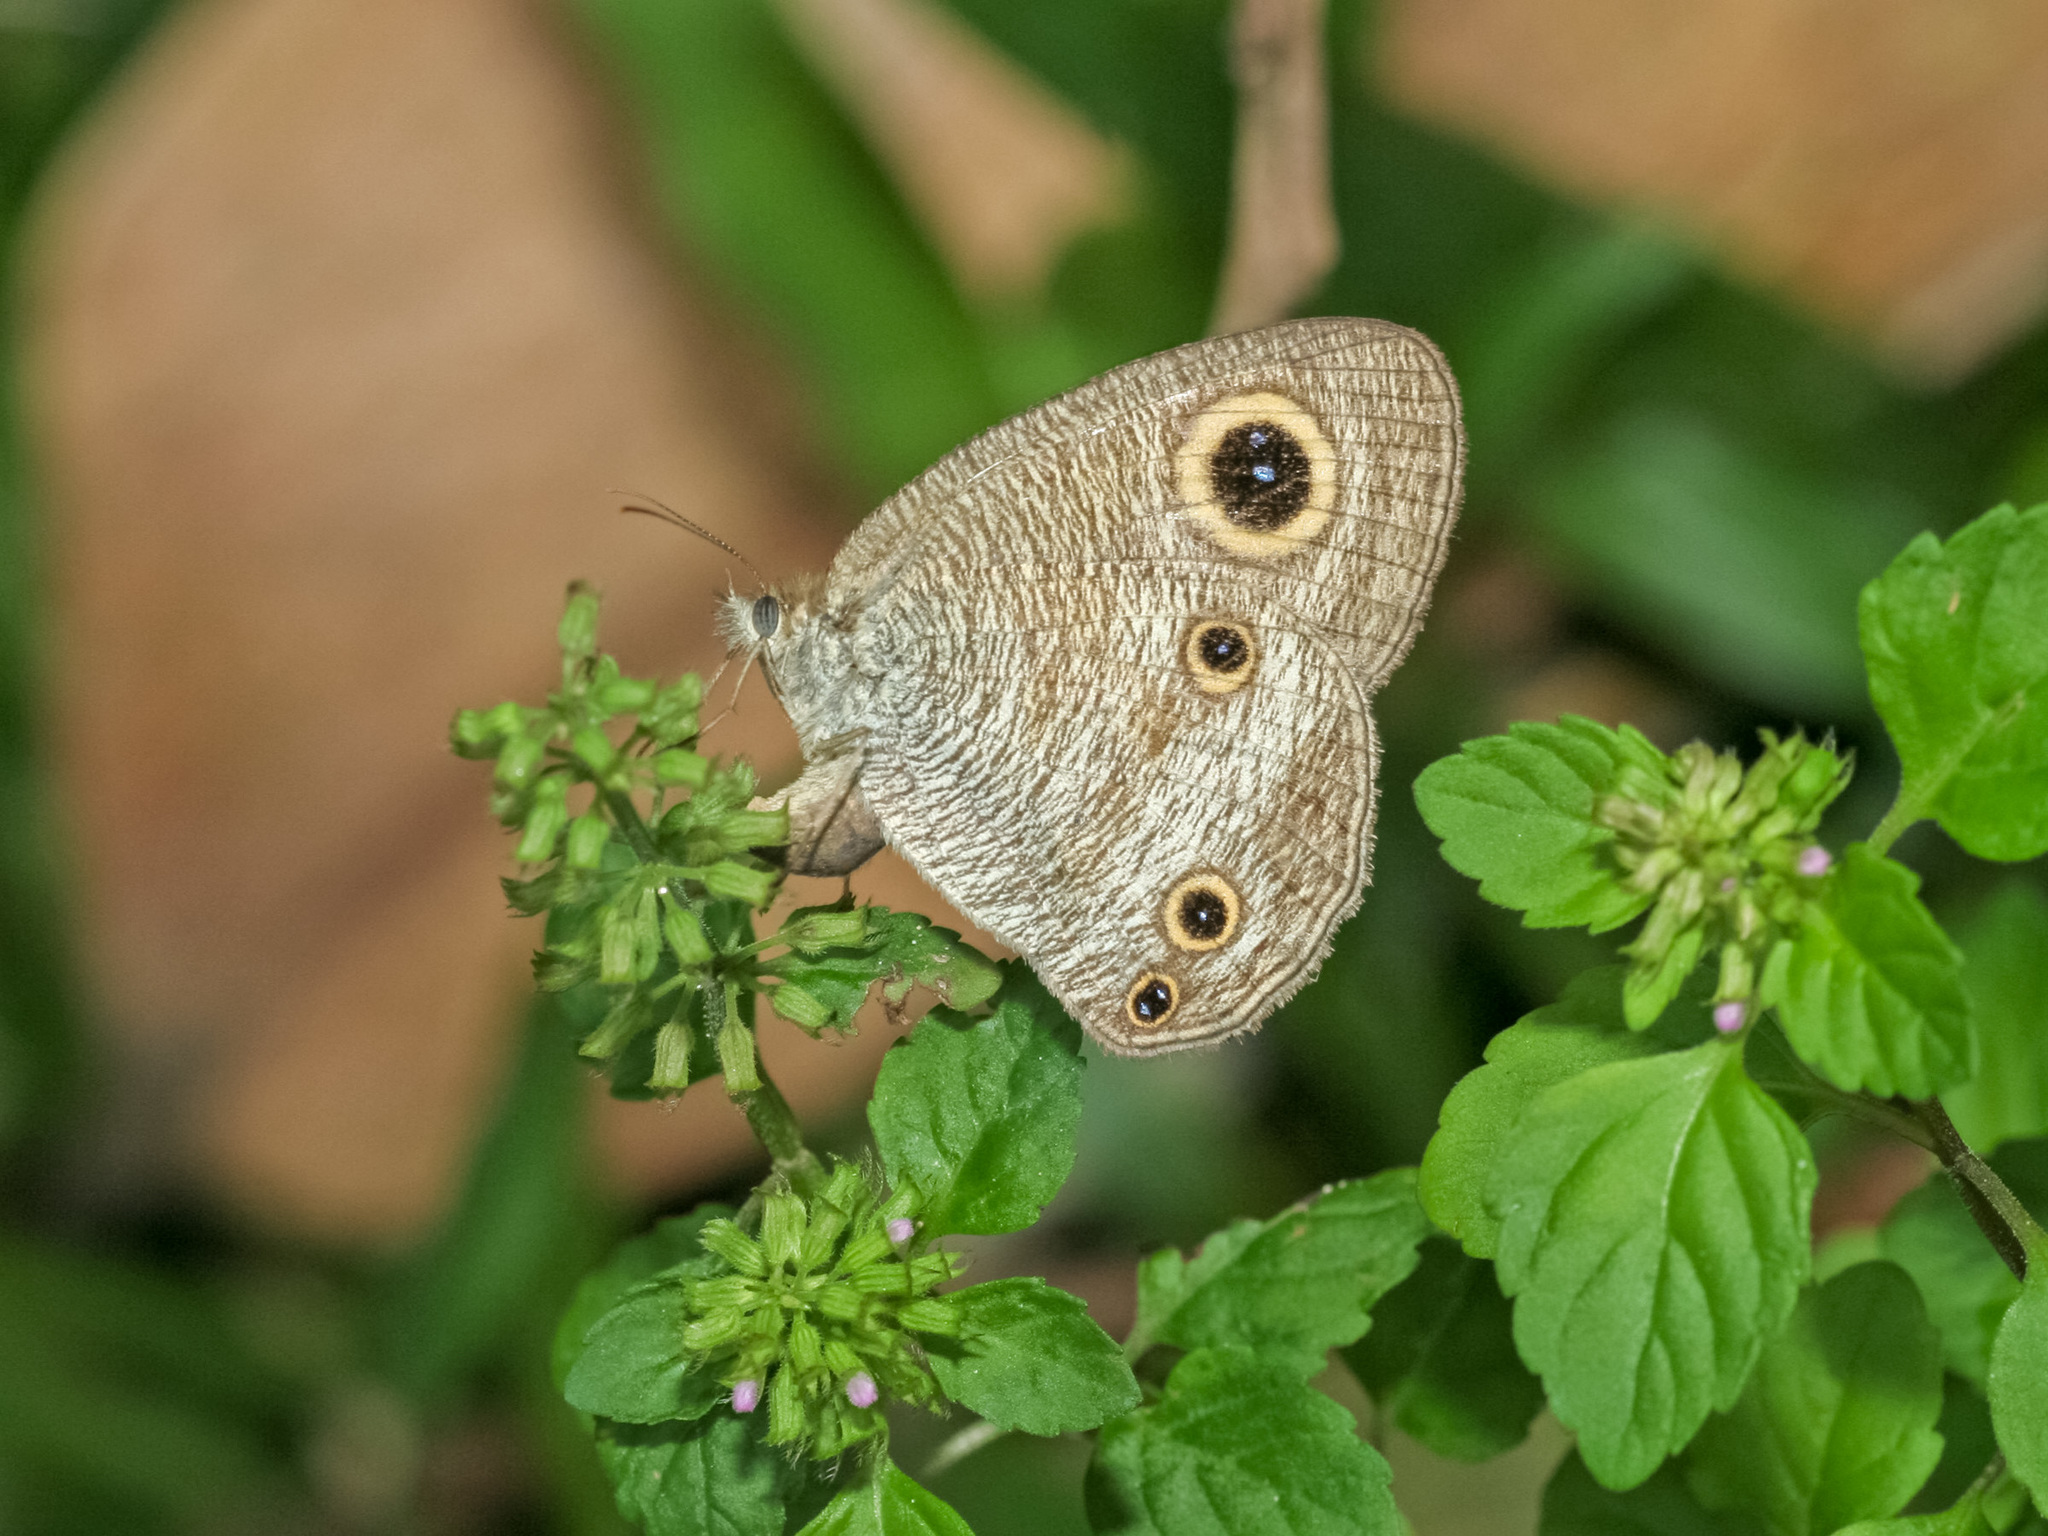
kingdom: Animalia
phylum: Arthropoda
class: Insecta
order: Lepidoptera
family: Nymphalidae
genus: Ypthima
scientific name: Ypthima pandocus
